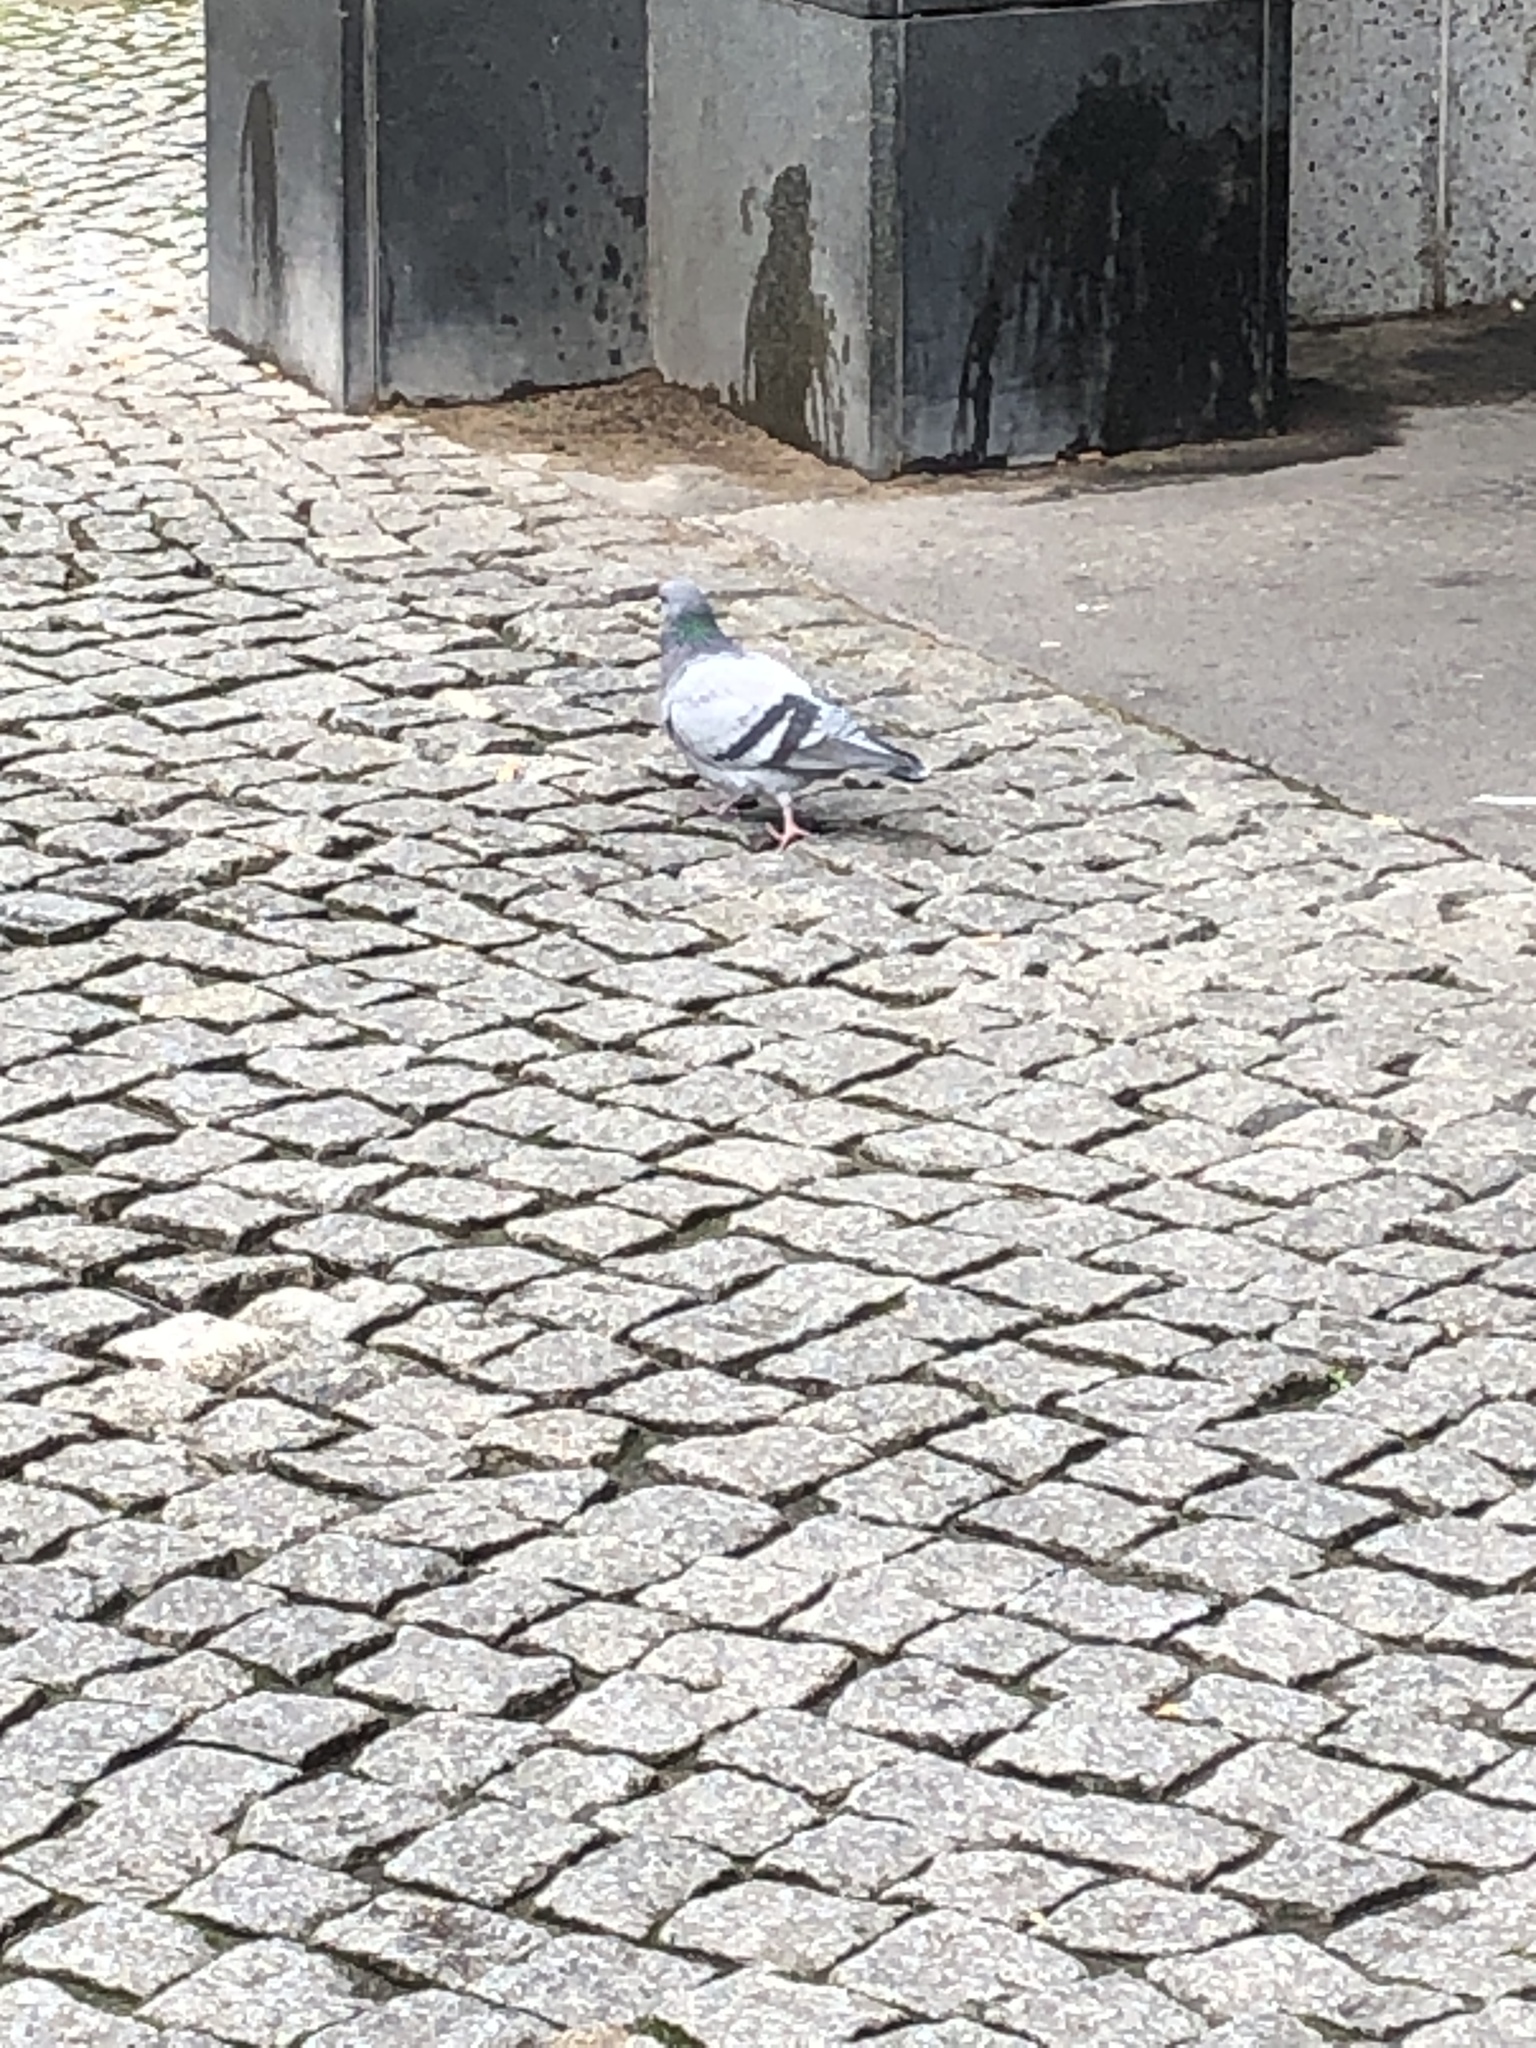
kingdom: Animalia
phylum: Chordata
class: Aves
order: Columbiformes
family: Columbidae
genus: Columba
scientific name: Columba livia
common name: Rock pigeon
